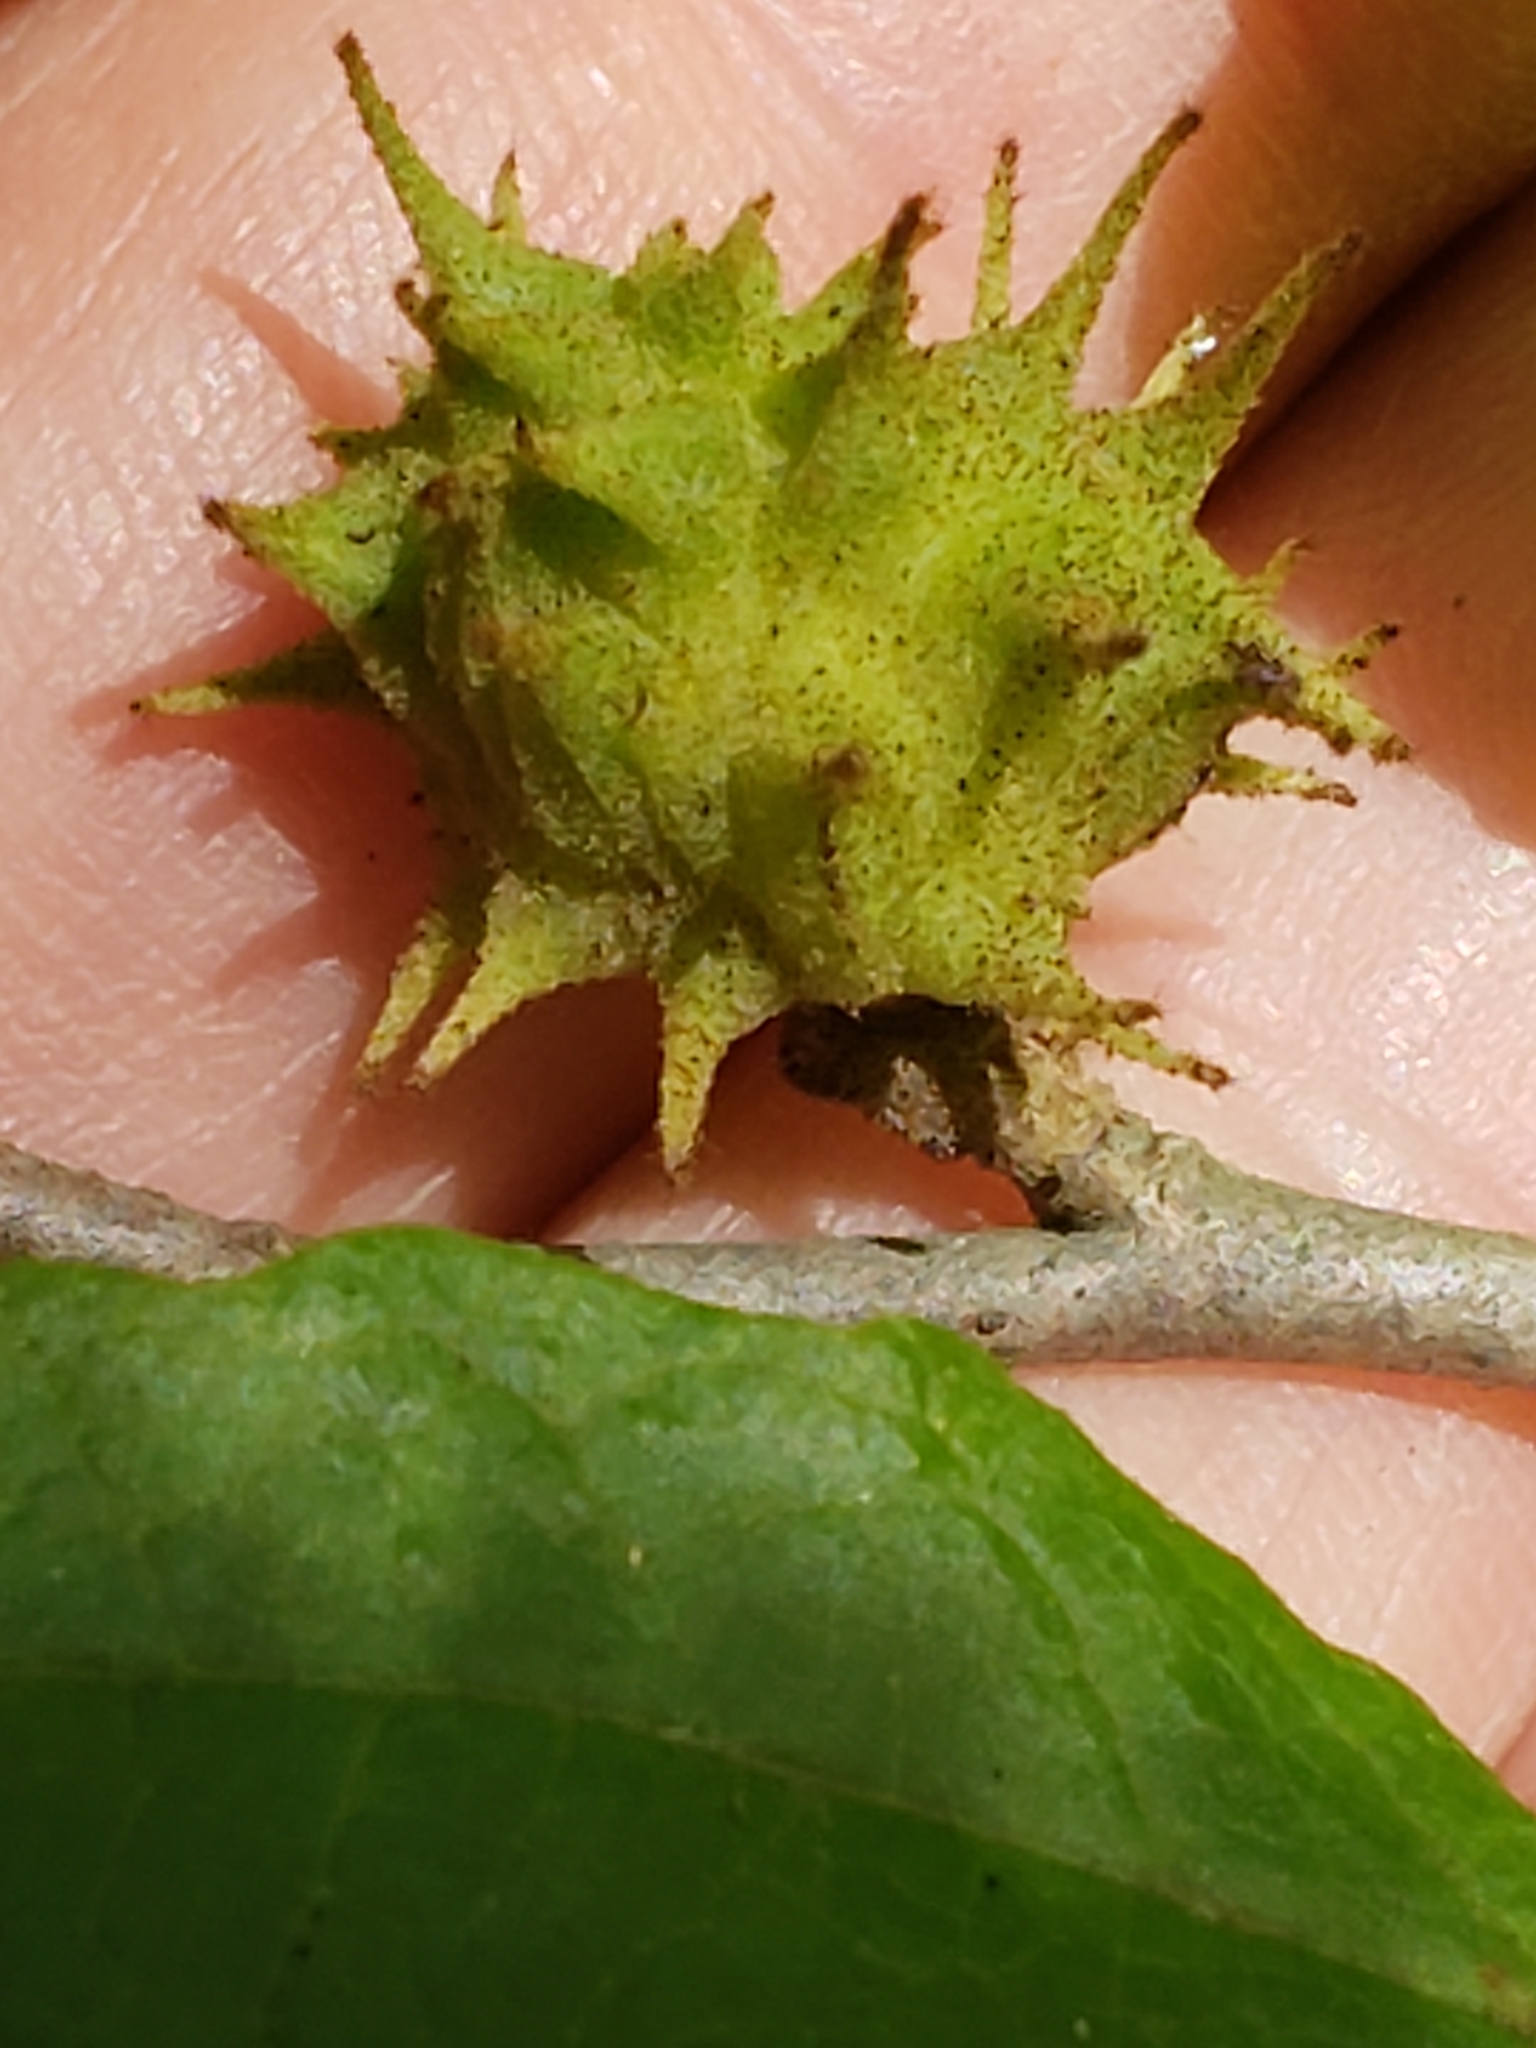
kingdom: Animalia
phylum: Arthropoda
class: Insecta
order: Hemiptera
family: Aphididae
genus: Hamamelistes
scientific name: Hamamelistes spinosus
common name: Witch hazel gall aphid
